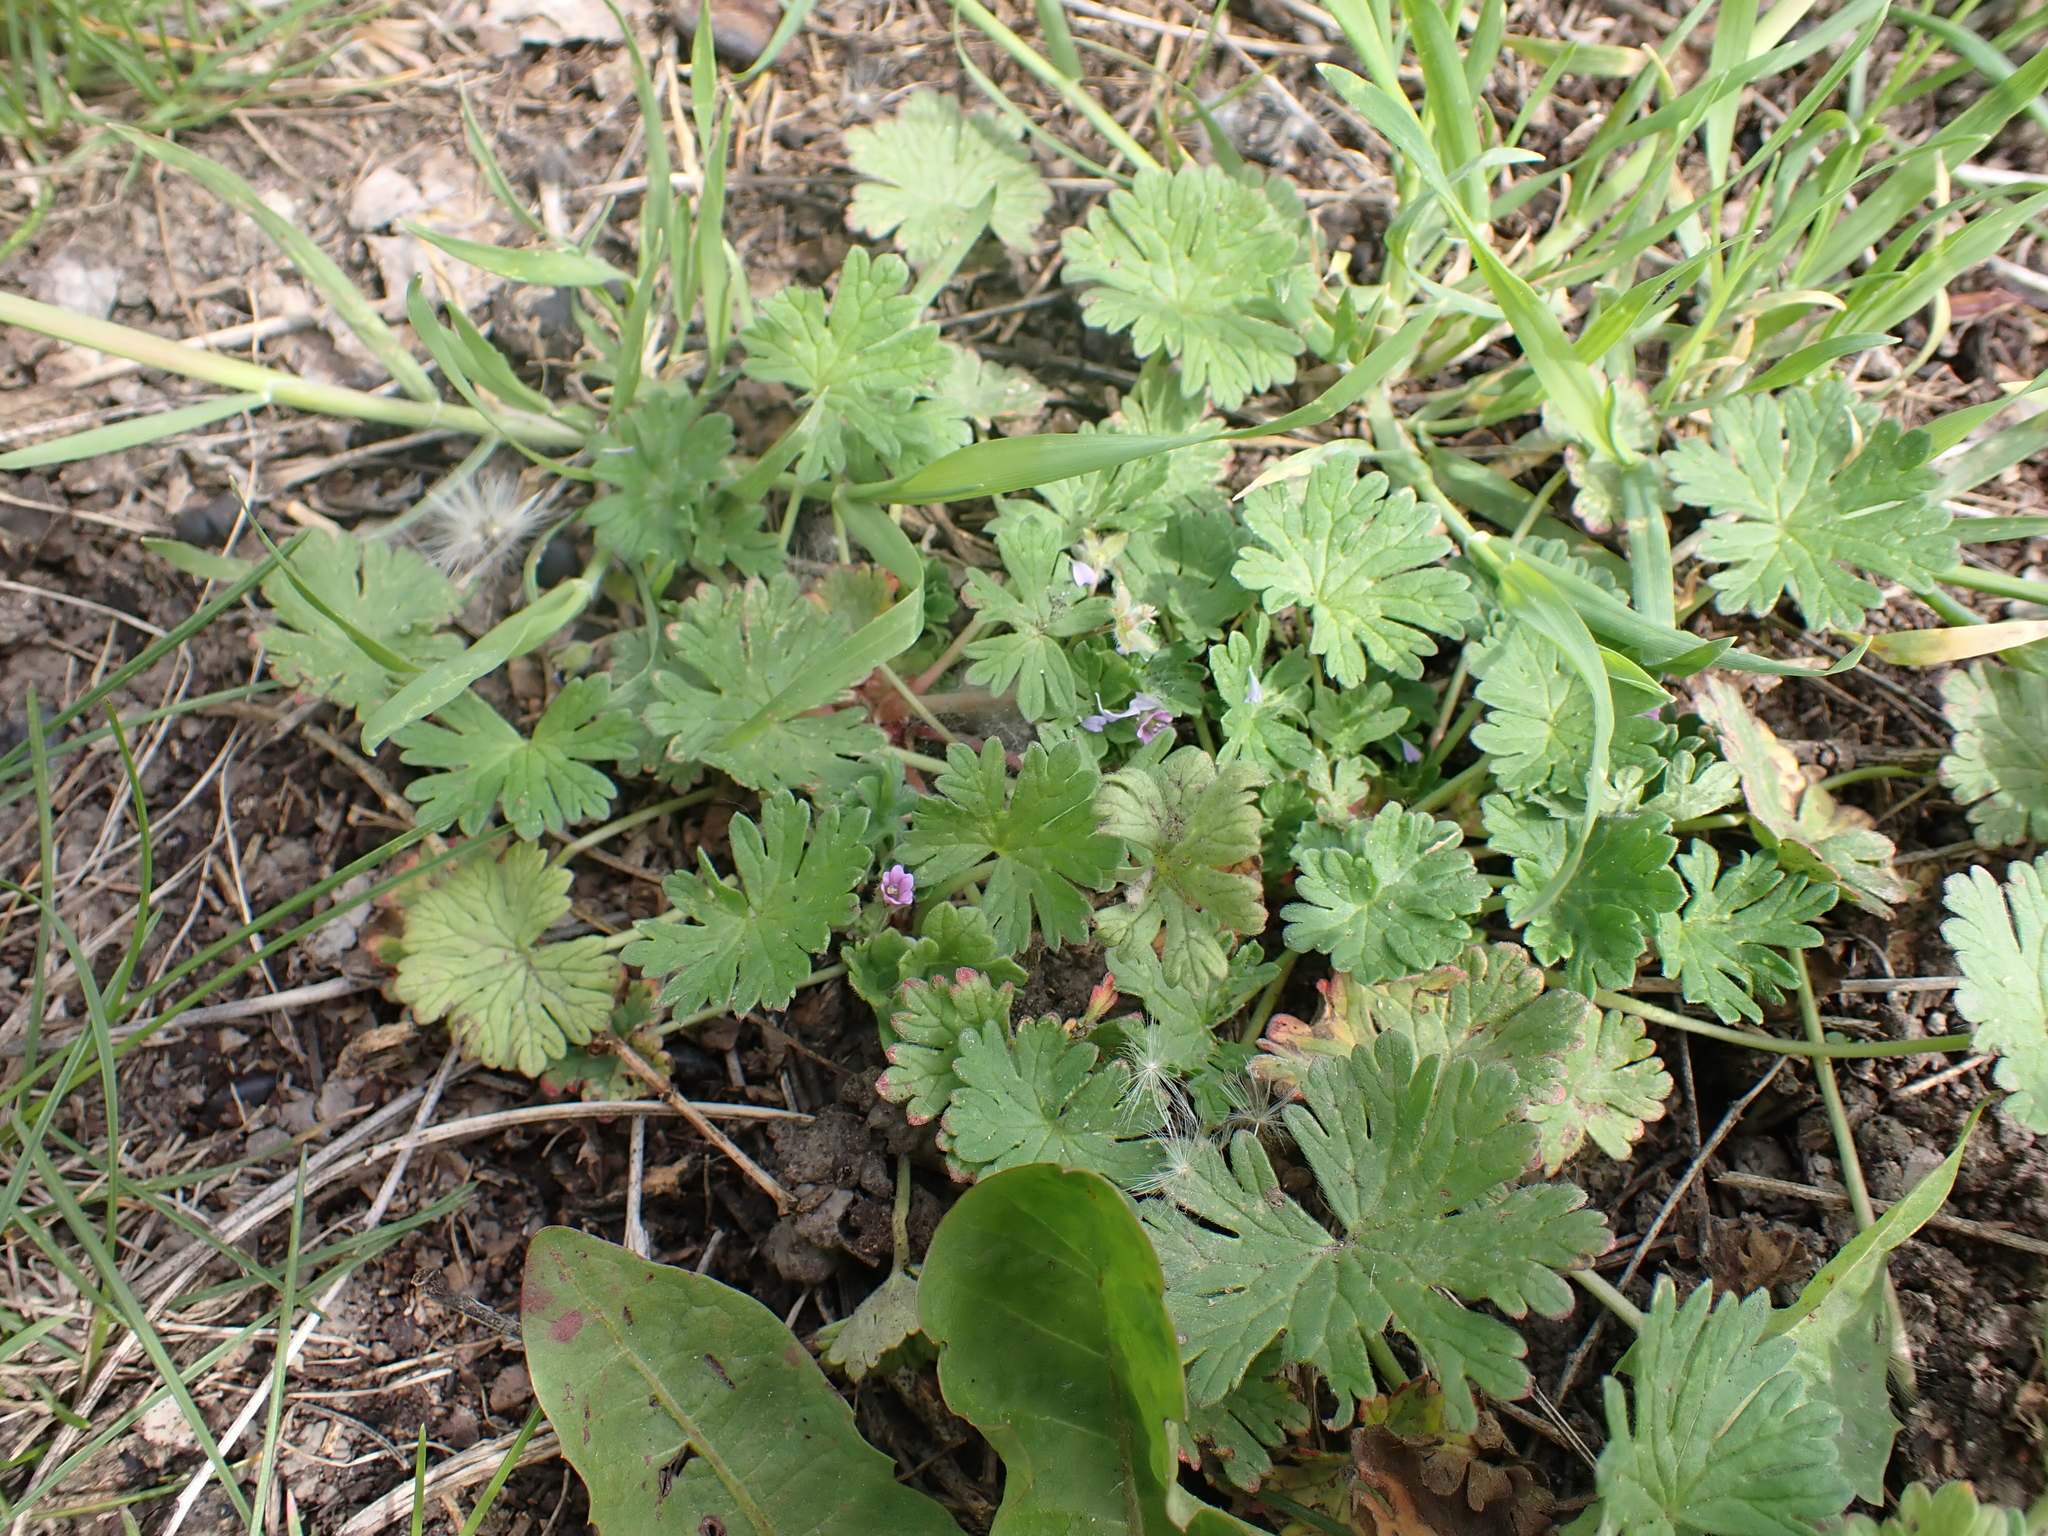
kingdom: Plantae
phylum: Tracheophyta
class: Magnoliopsida
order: Geraniales
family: Geraniaceae
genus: Geranium
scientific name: Geranium pusillum
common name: Small geranium
